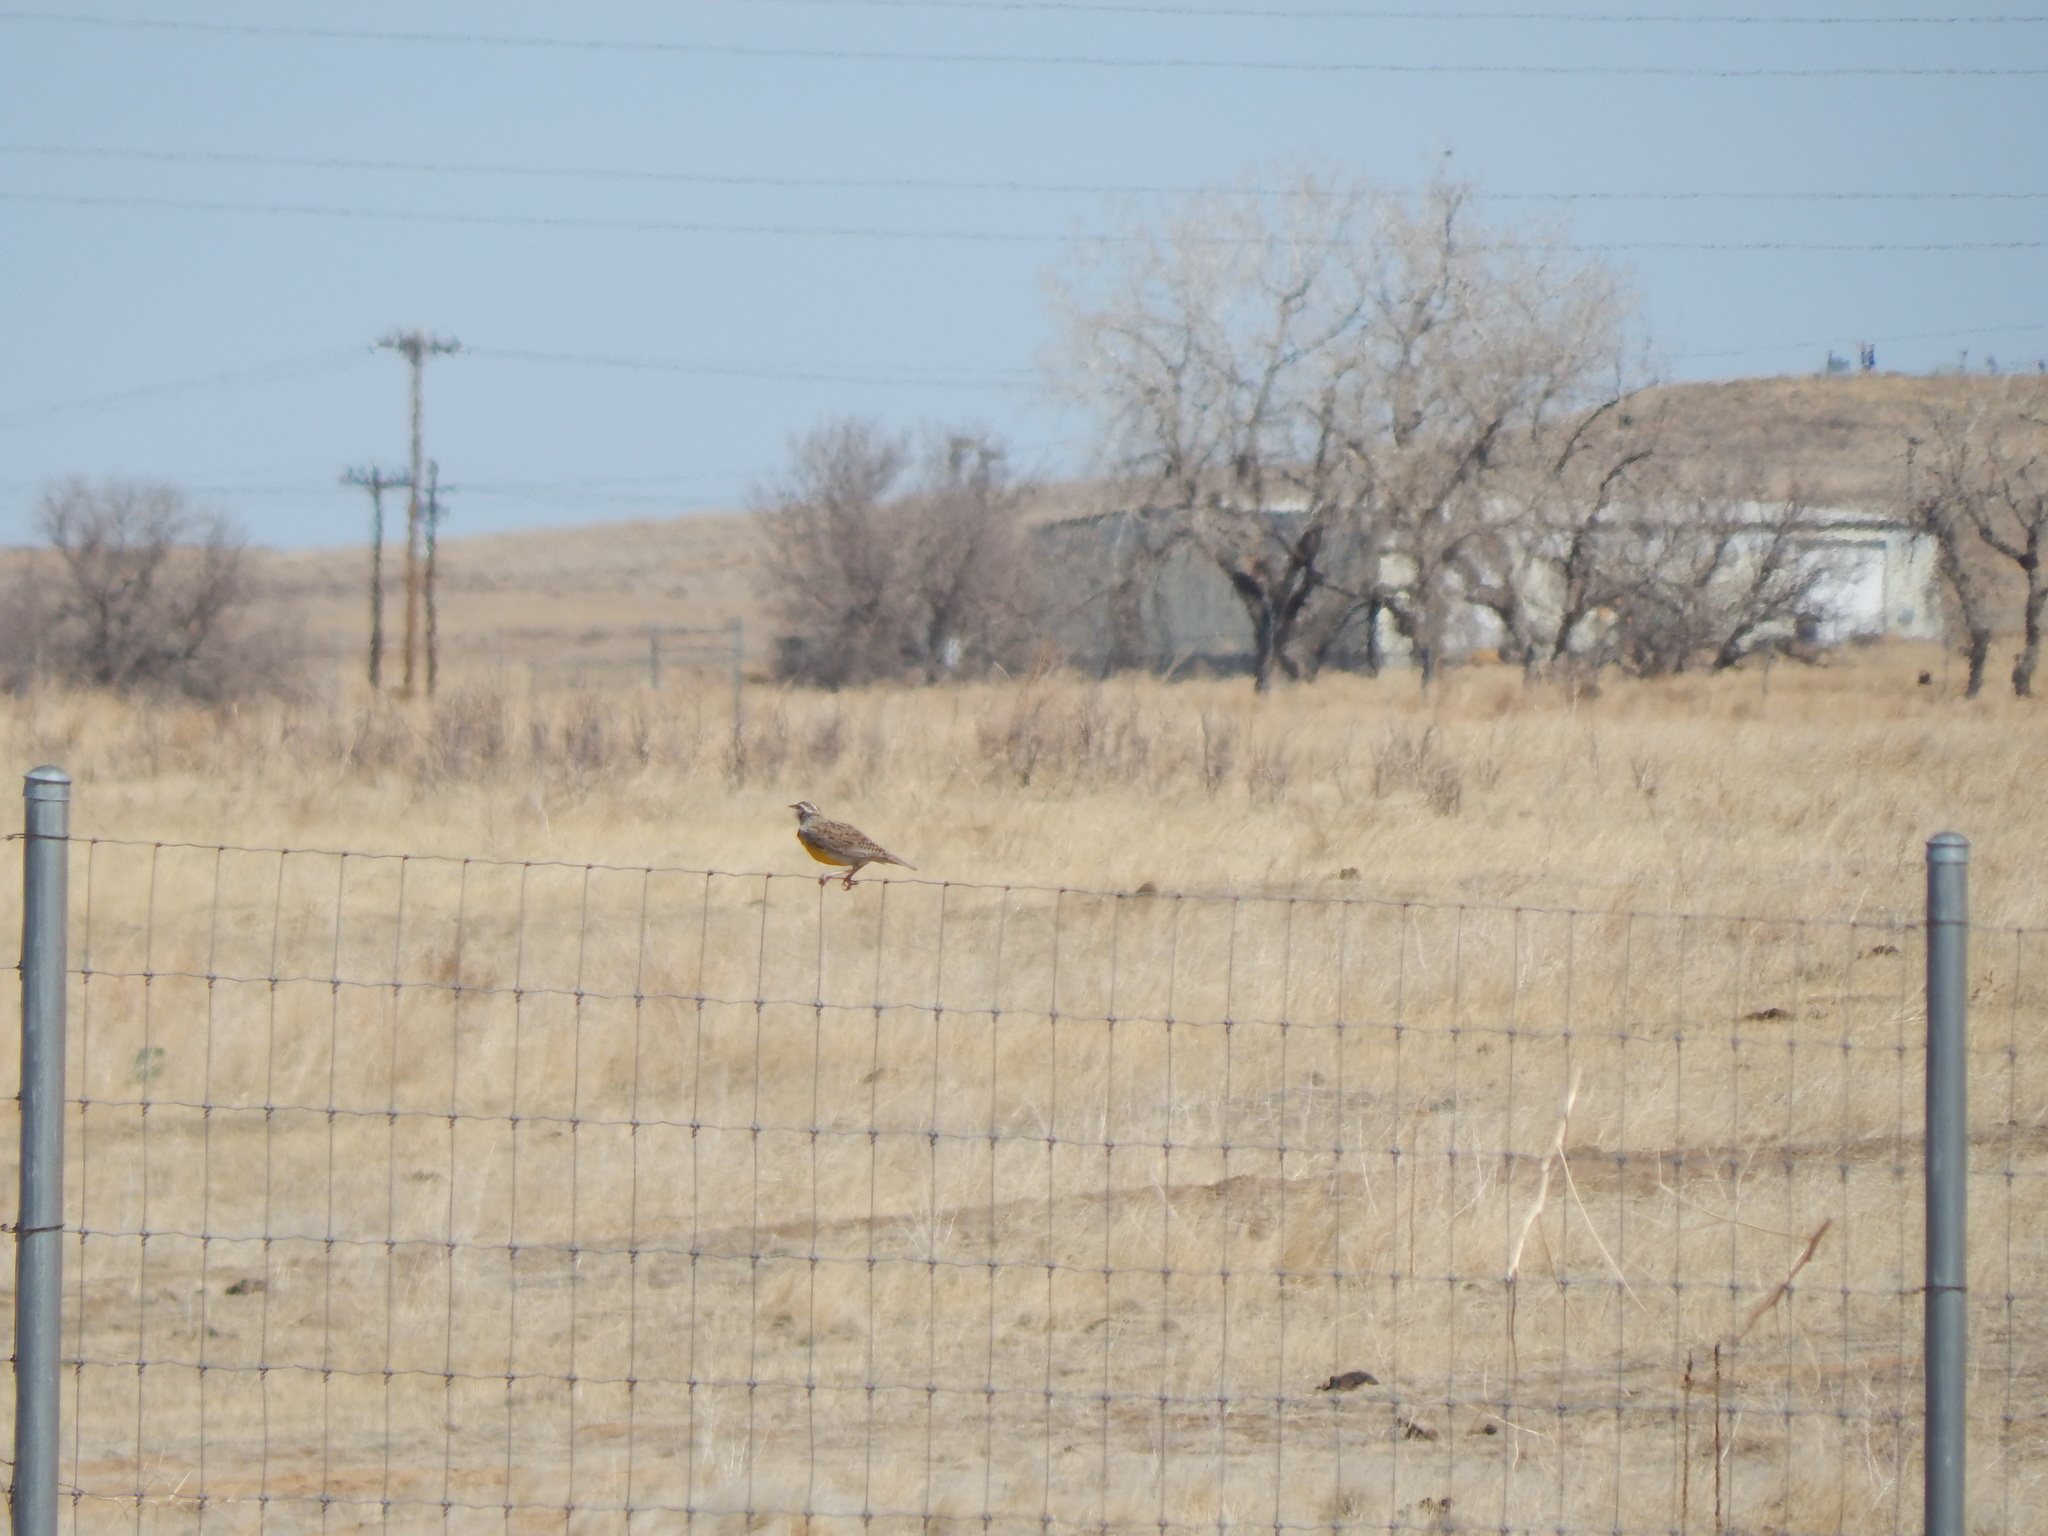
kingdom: Animalia
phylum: Chordata
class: Aves
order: Passeriformes
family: Icteridae
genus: Sturnella
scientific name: Sturnella neglecta
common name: Western meadowlark
